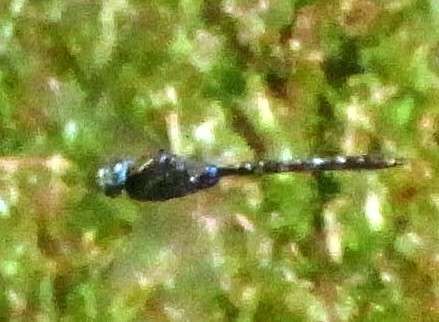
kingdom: Animalia
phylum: Arthropoda
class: Insecta
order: Odonata
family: Aeshnidae
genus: Aeshna
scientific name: Aeshna brevistyla
